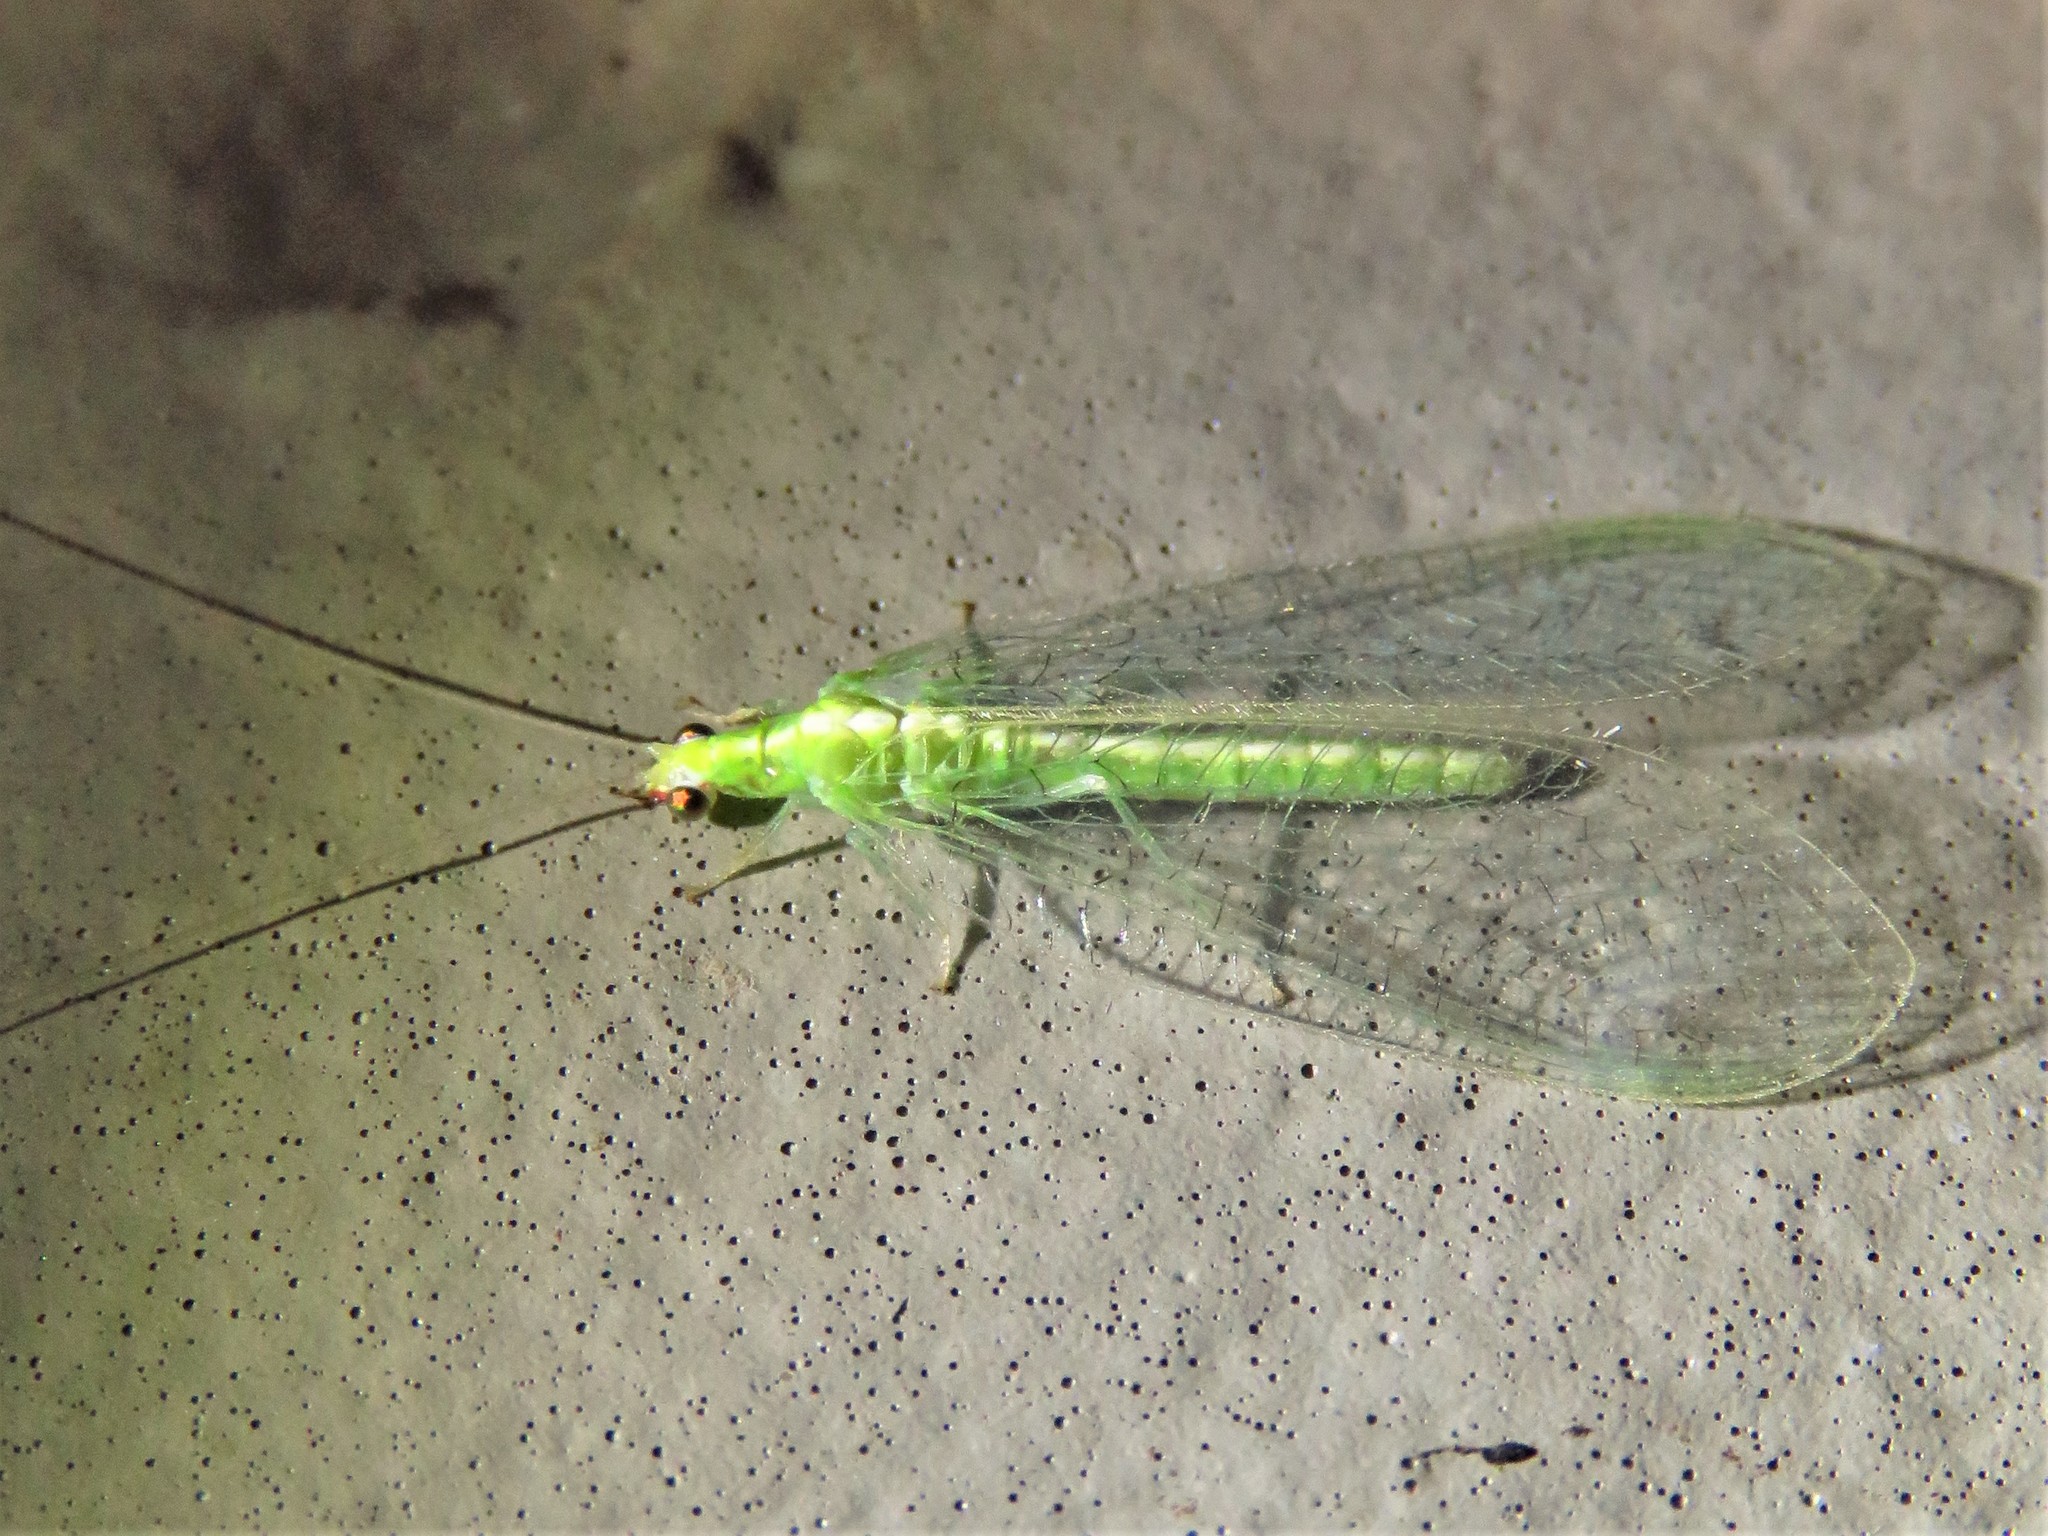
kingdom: Animalia
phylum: Arthropoda
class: Insecta
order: Neuroptera
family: Chrysopidae
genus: Chrysoperla
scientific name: Chrysoperla rufilabris
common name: Red-lipped green lacewing
